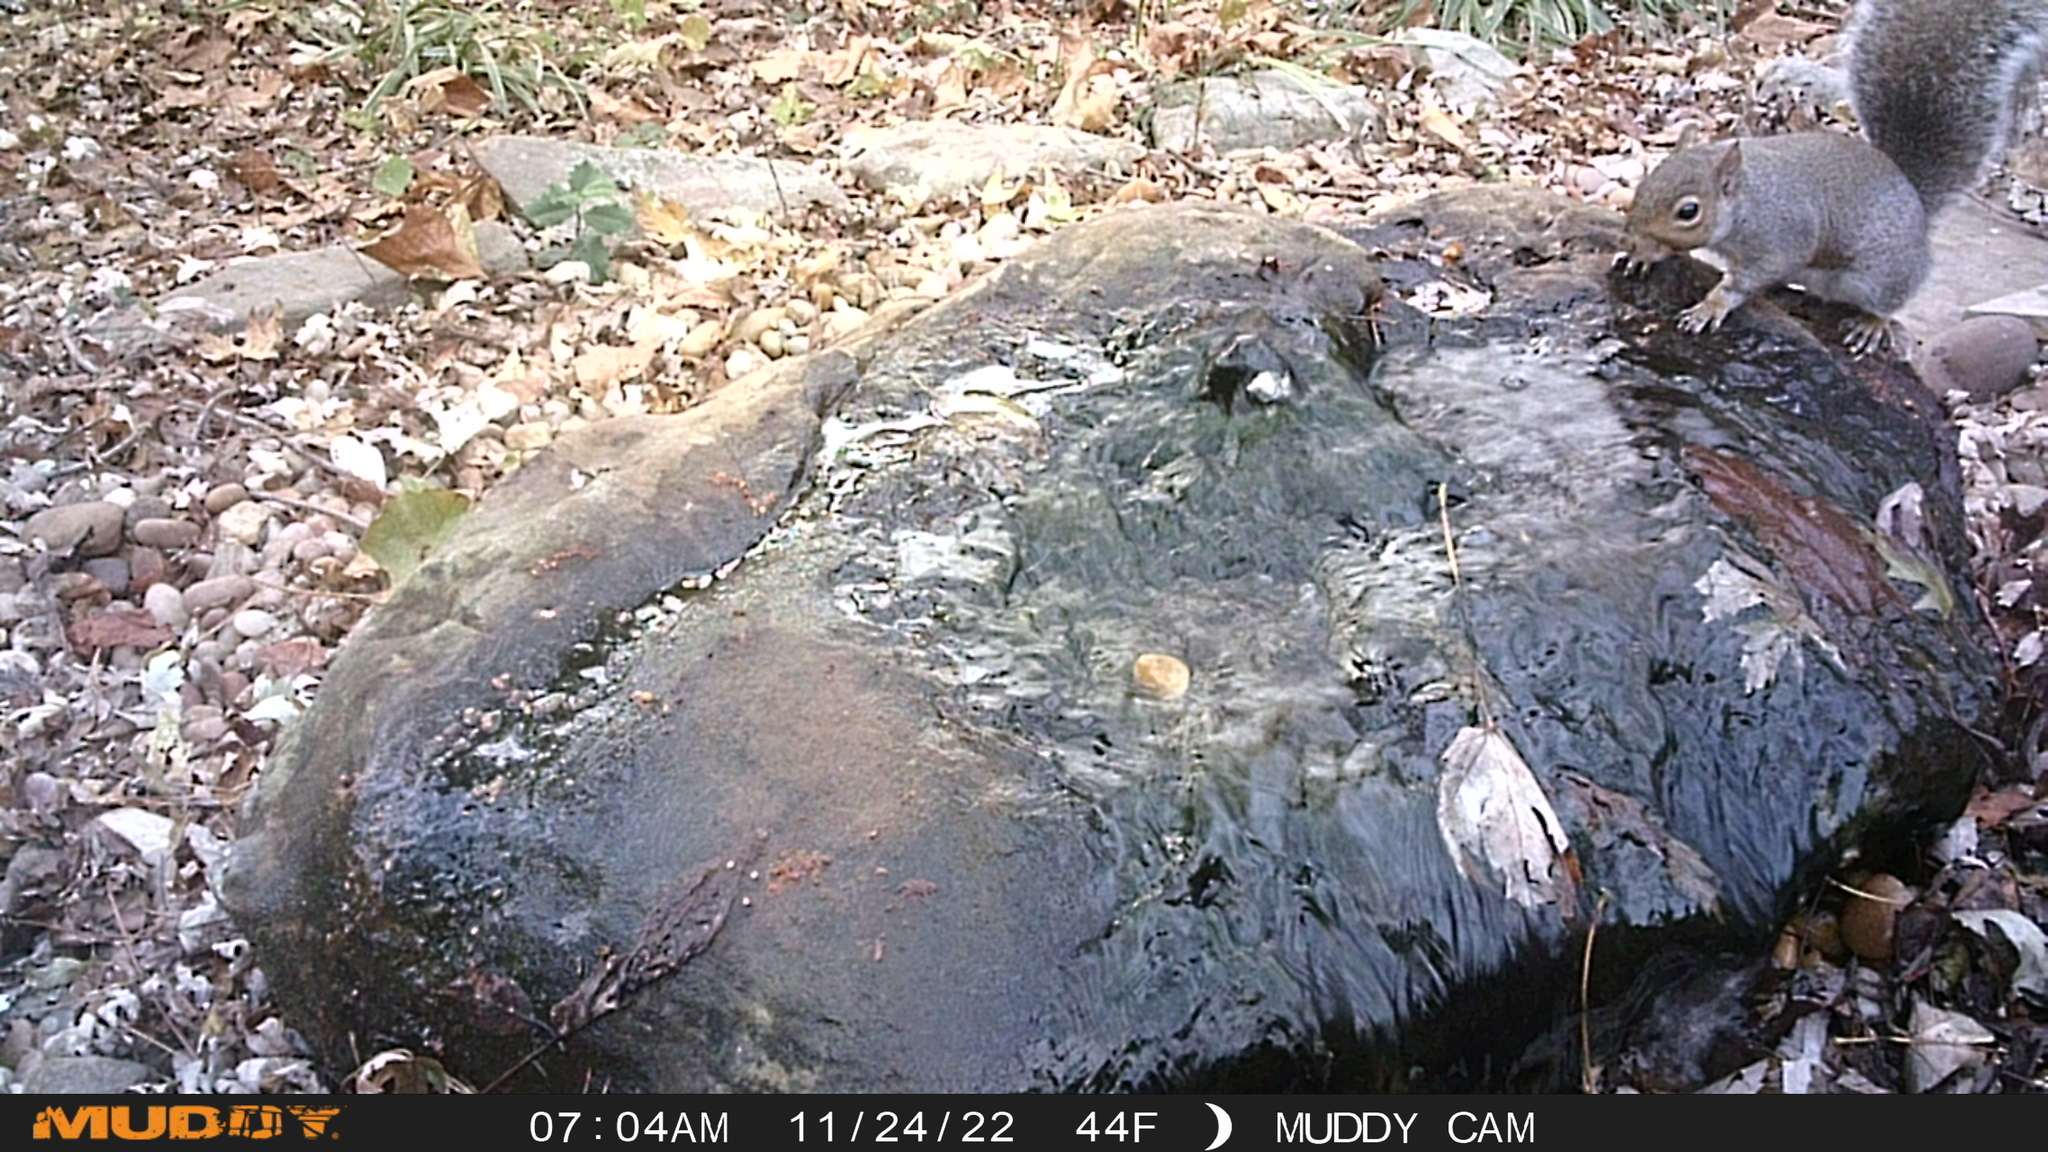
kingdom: Animalia
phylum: Chordata
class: Mammalia
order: Rodentia
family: Sciuridae
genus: Sciurus
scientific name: Sciurus carolinensis
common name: Eastern gray squirrel
